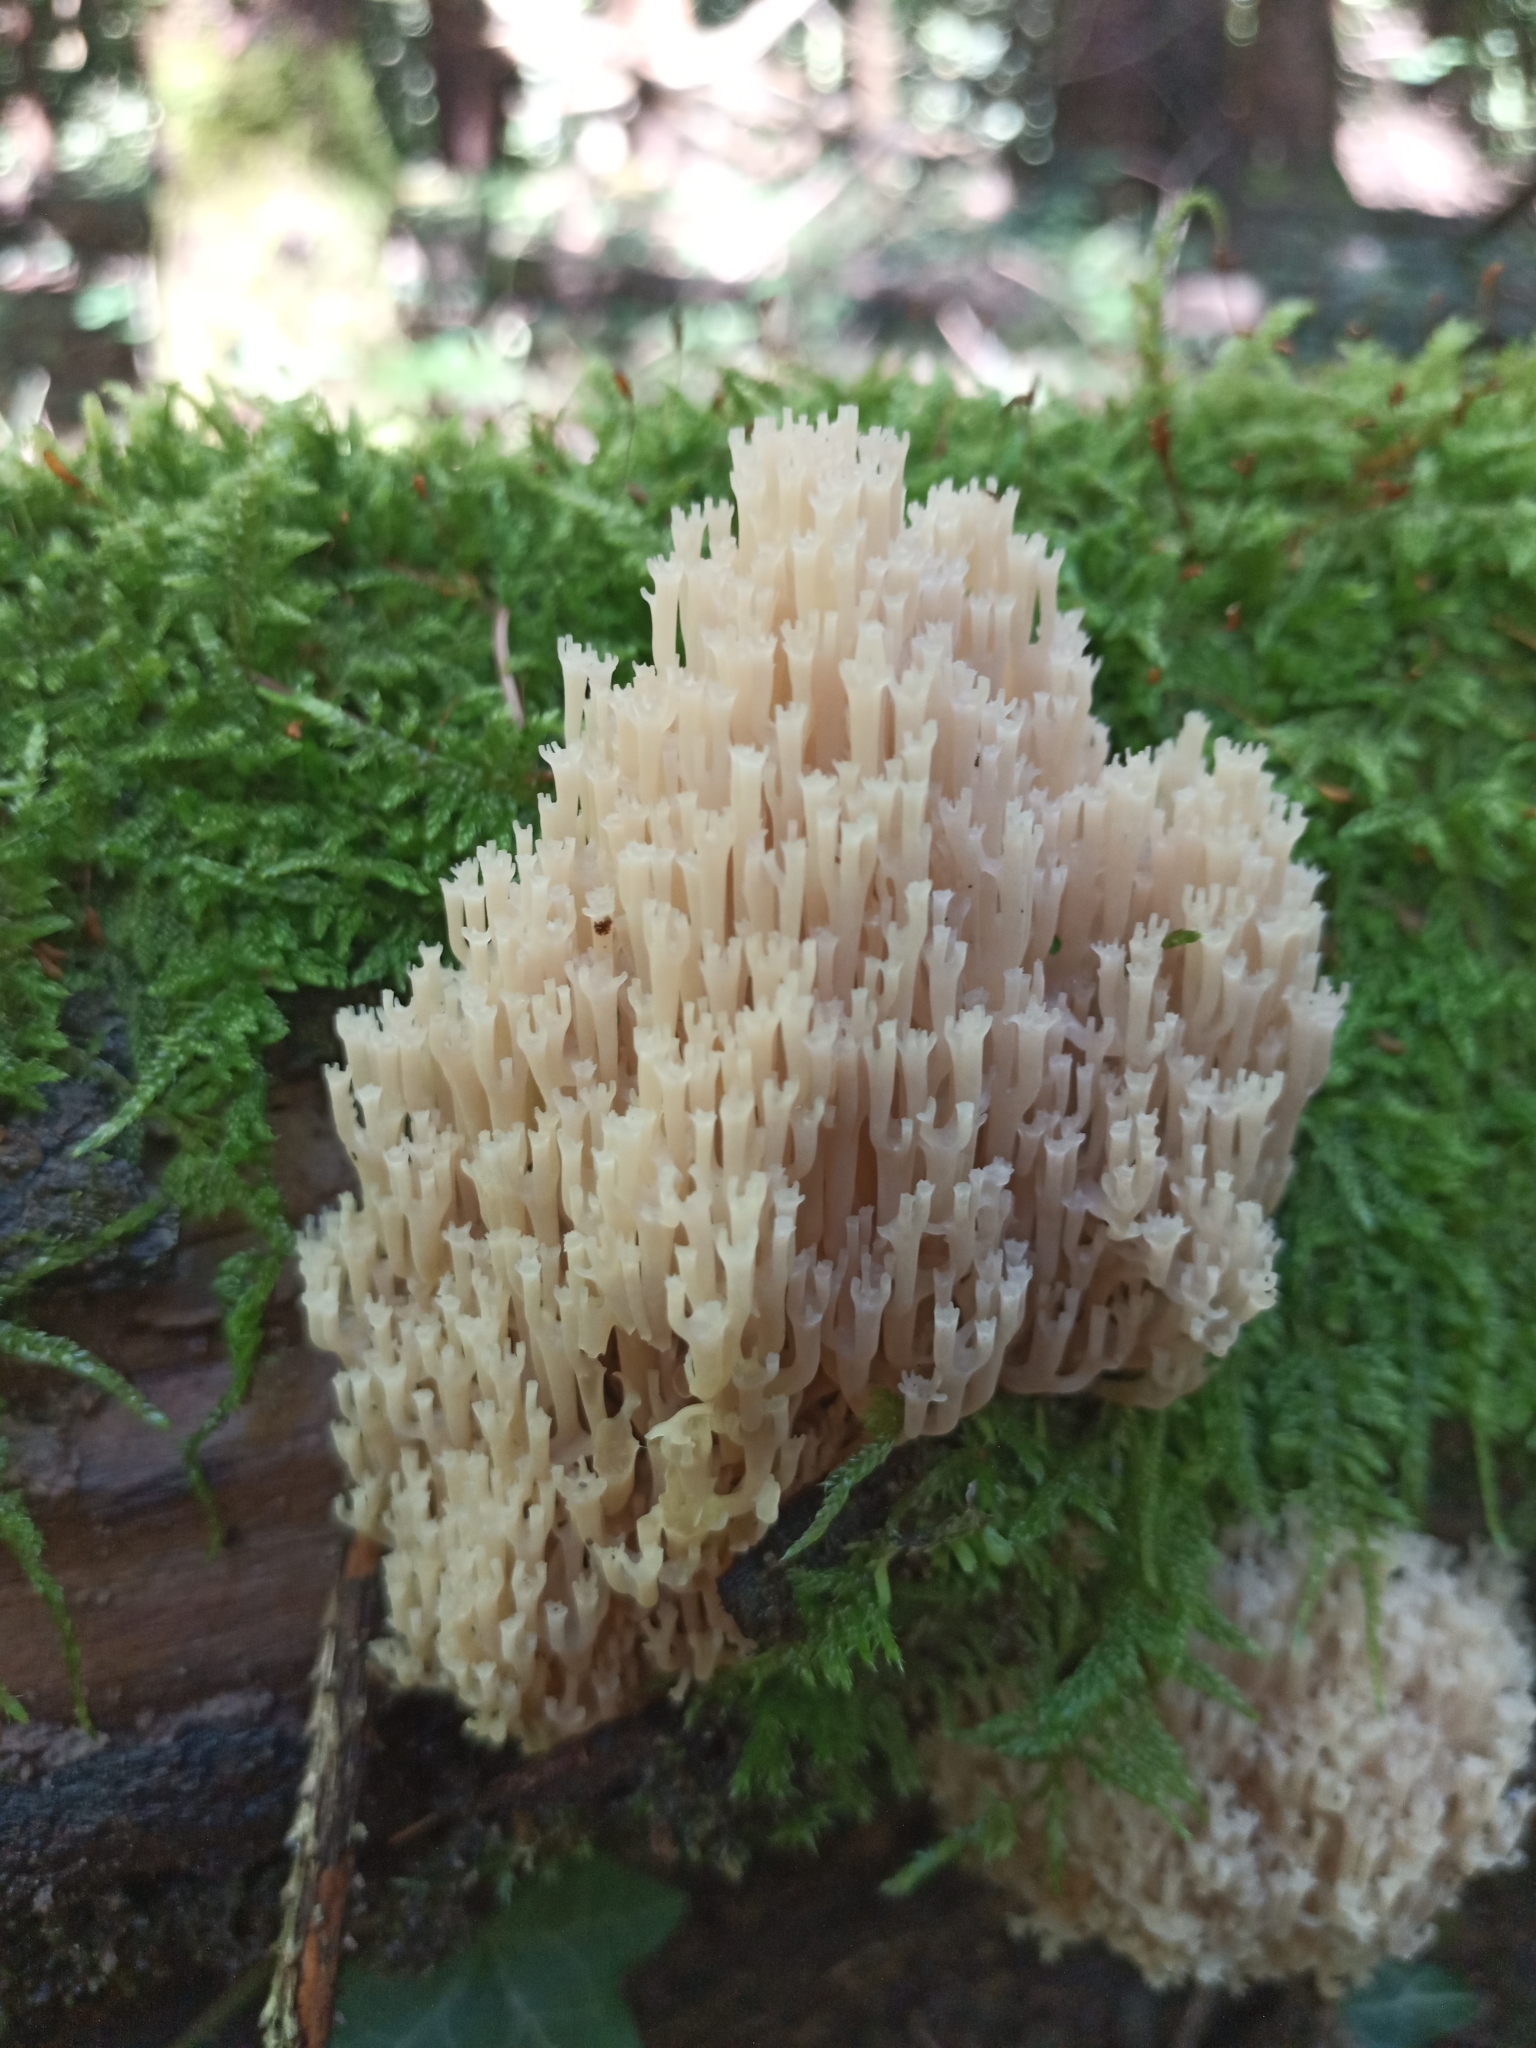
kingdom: Fungi
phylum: Basidiomycota
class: Agaricomycetes
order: Russulales
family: Auriscalpiaceae
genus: Artomyces
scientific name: Artomyces pyxidatus
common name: Crown-tipped coral fungus
